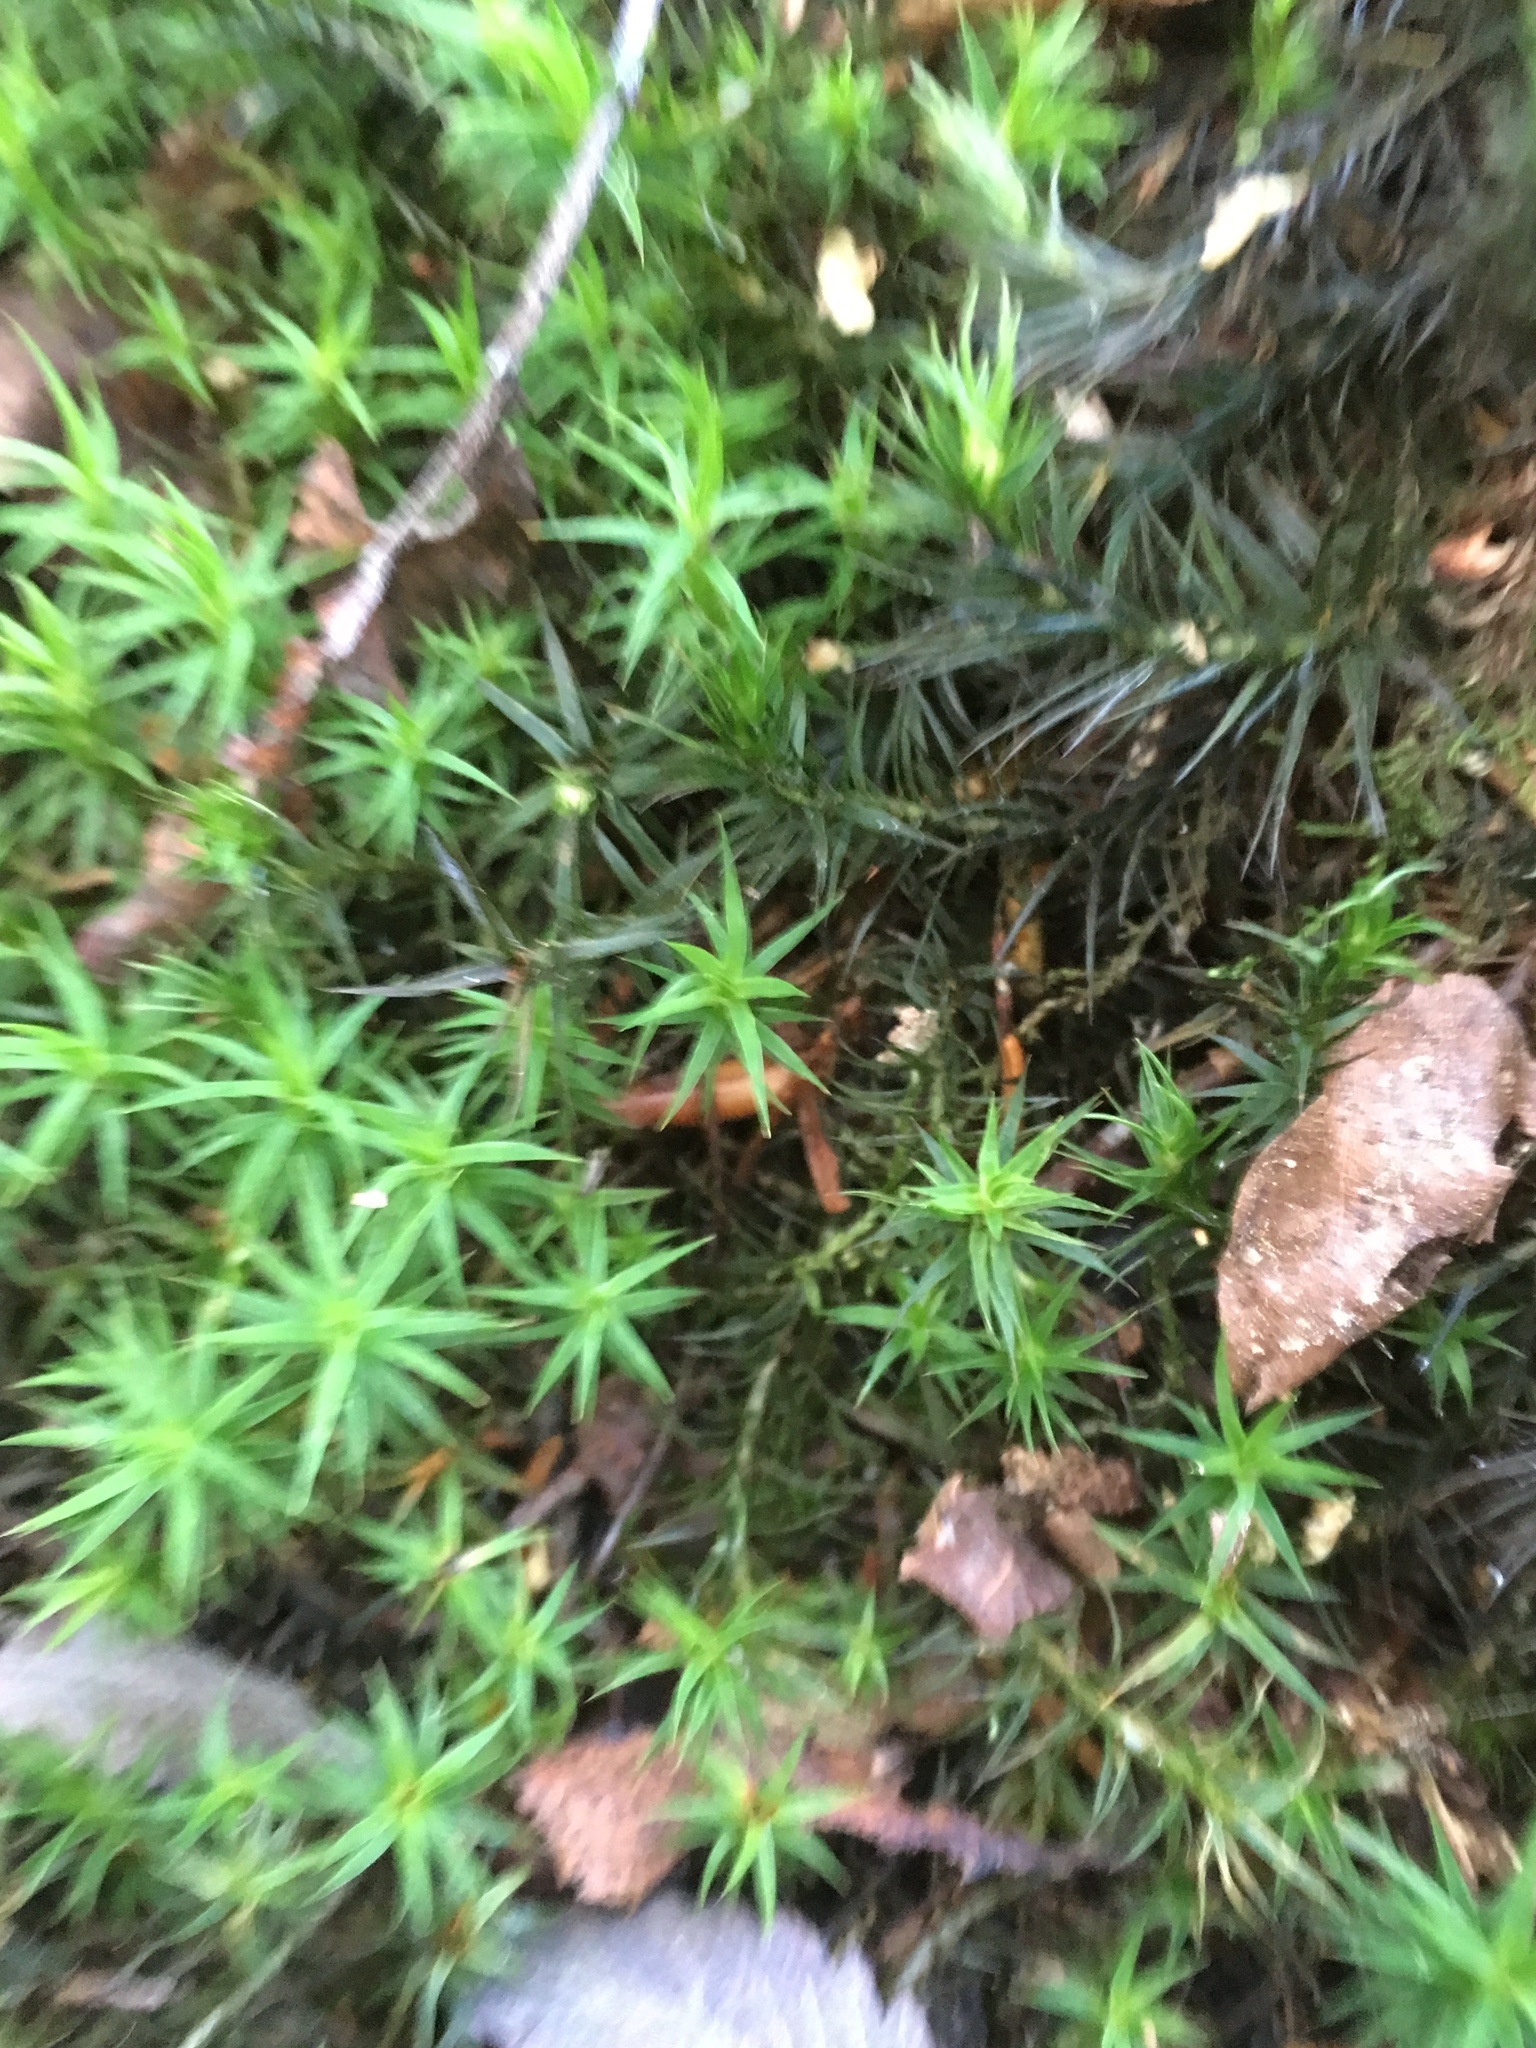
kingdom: Plantae
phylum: Bryophyta
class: Polytrichopsida
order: Polytrichales
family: Polytrichaceae
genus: Polytrichum
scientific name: Polytrichum formosum
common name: Bank haircap moss
